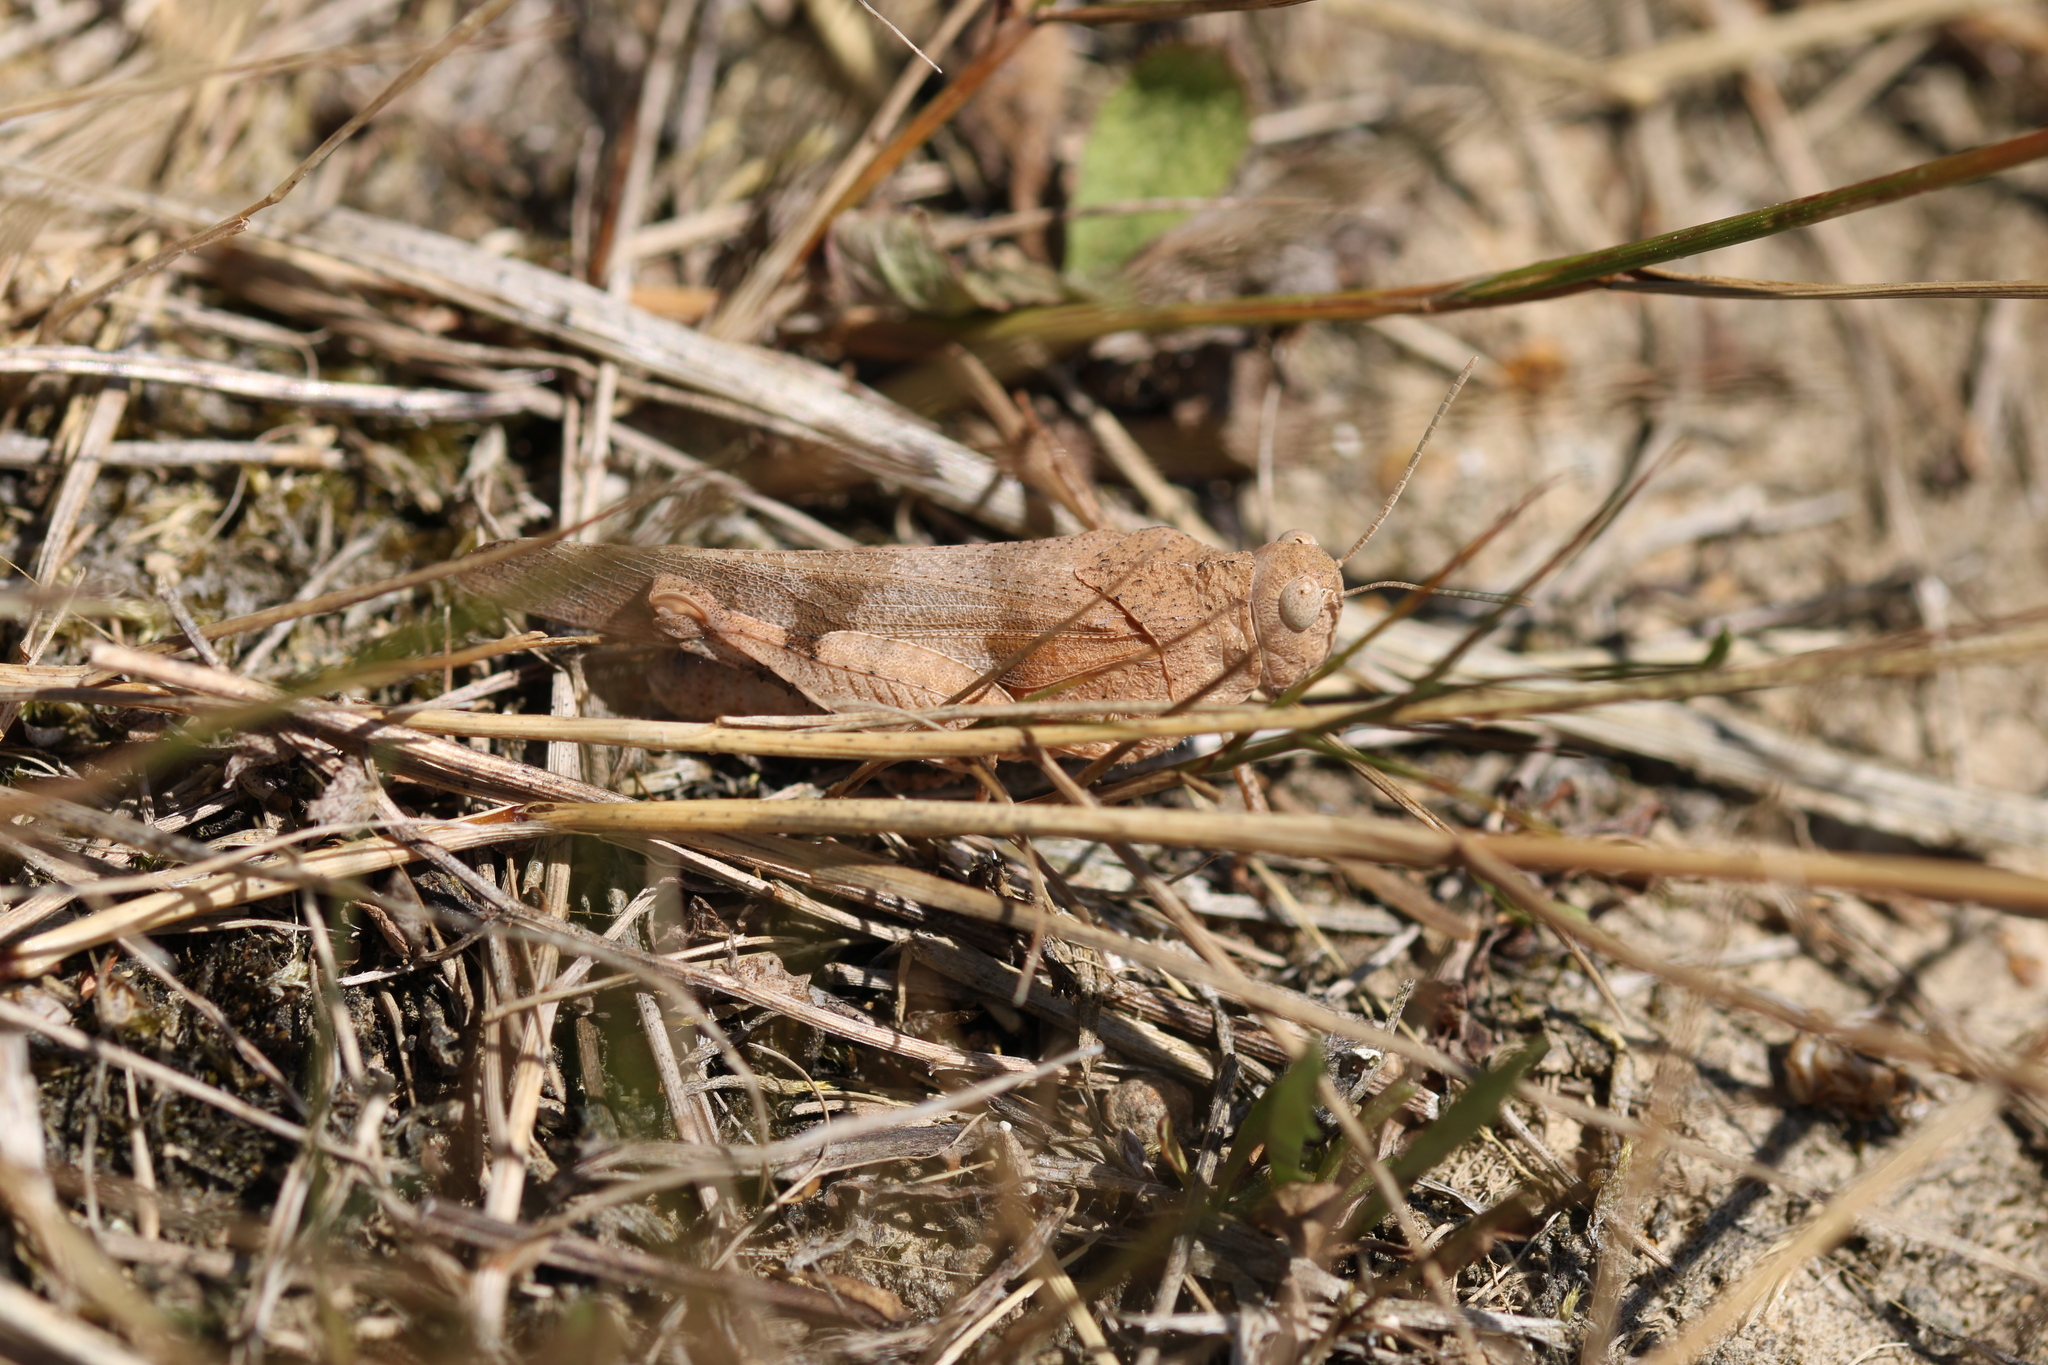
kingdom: Animalia
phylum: Arthropoda
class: Insecta
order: Orthoptera
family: Acrididae
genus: Oedipoda
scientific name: Oedipoda caerulescens
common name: Blue-winged grasshopper
